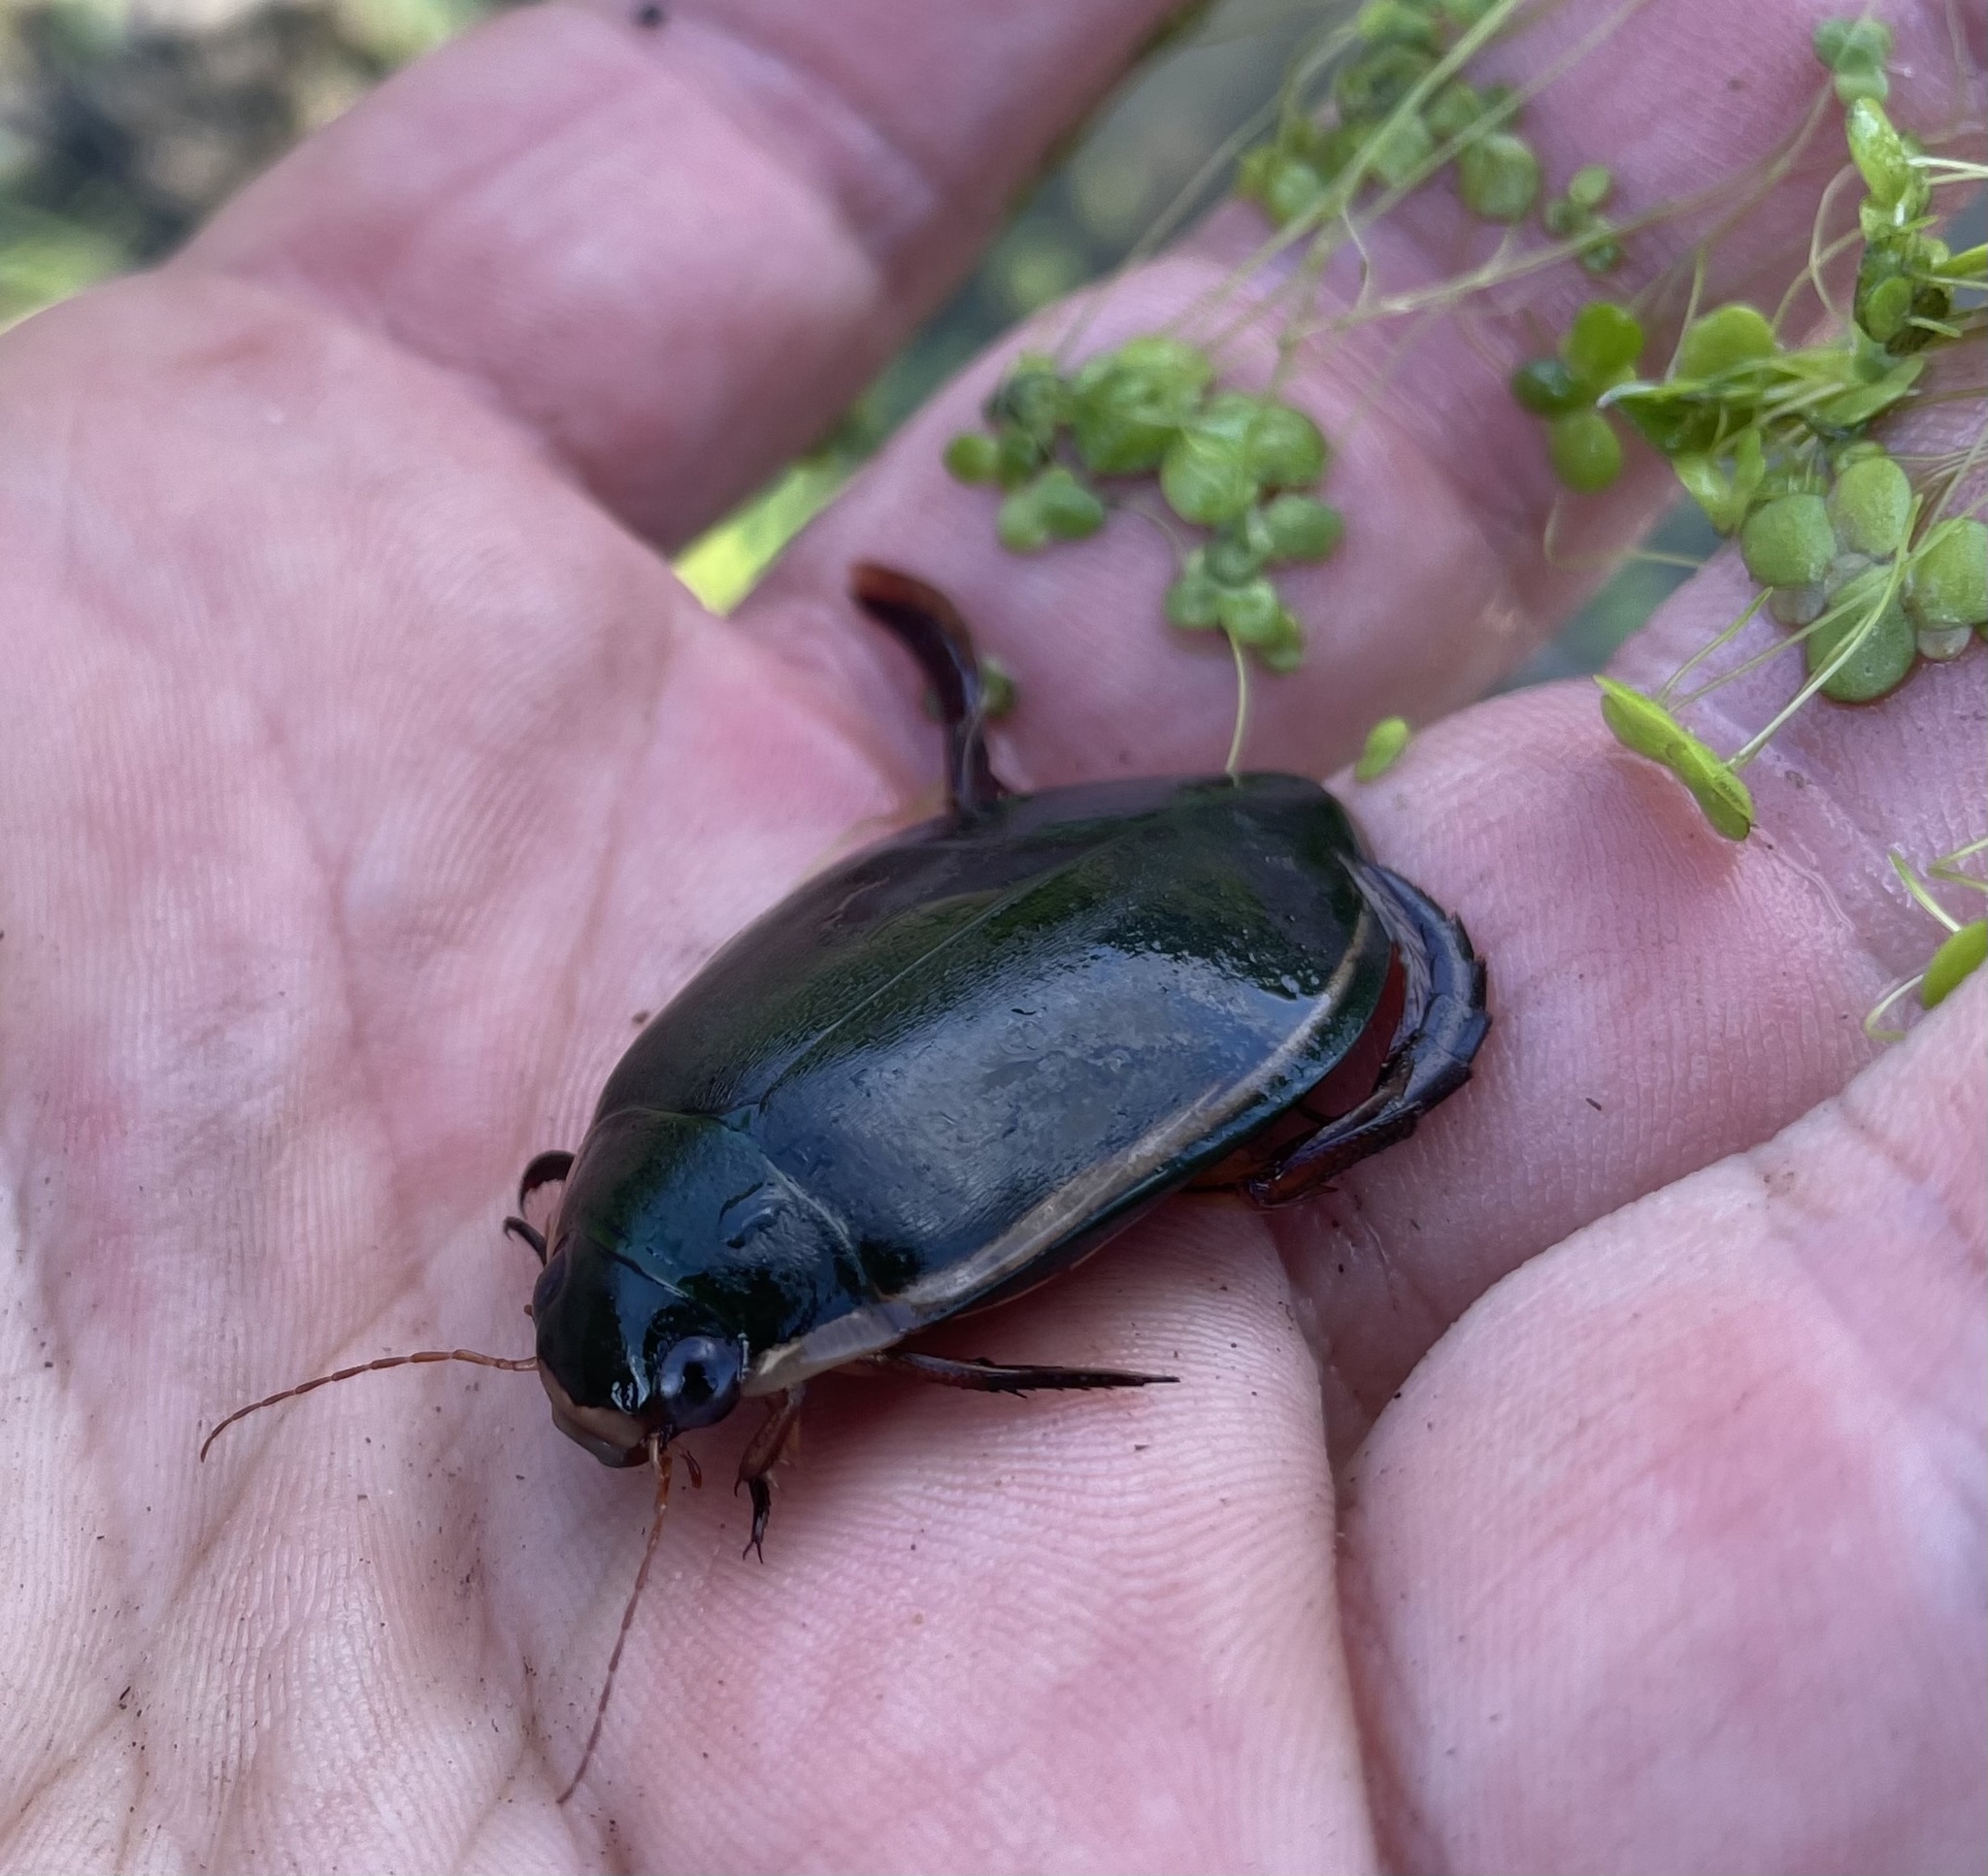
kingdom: Animalia
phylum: Arthropoda
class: Insecta
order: Coleoptera
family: Dytiscidae
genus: Cybister
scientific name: Cybister lateralimarginalis
